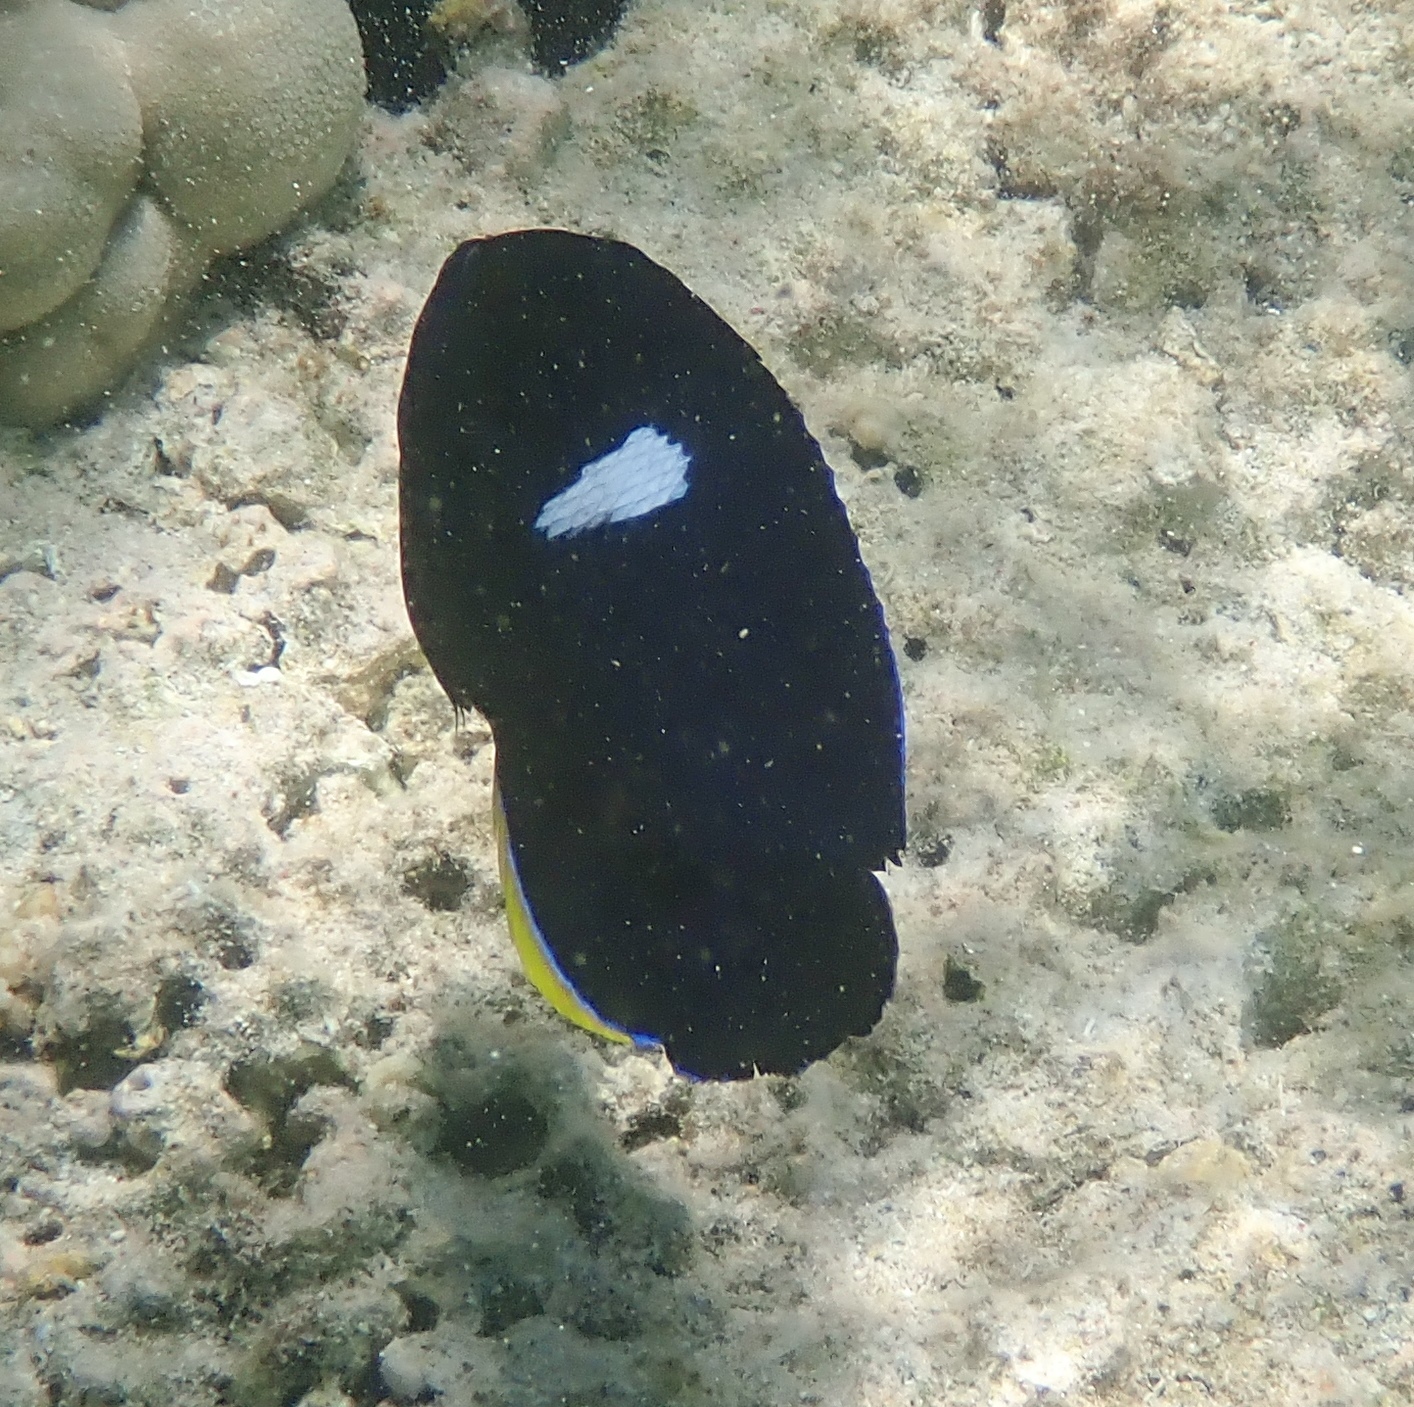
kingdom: Animalia
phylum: Chordata
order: Perciformes
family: Pomacanthidae
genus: Centropyge
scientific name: Centropyge tibicen
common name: Keyhole angelfish
